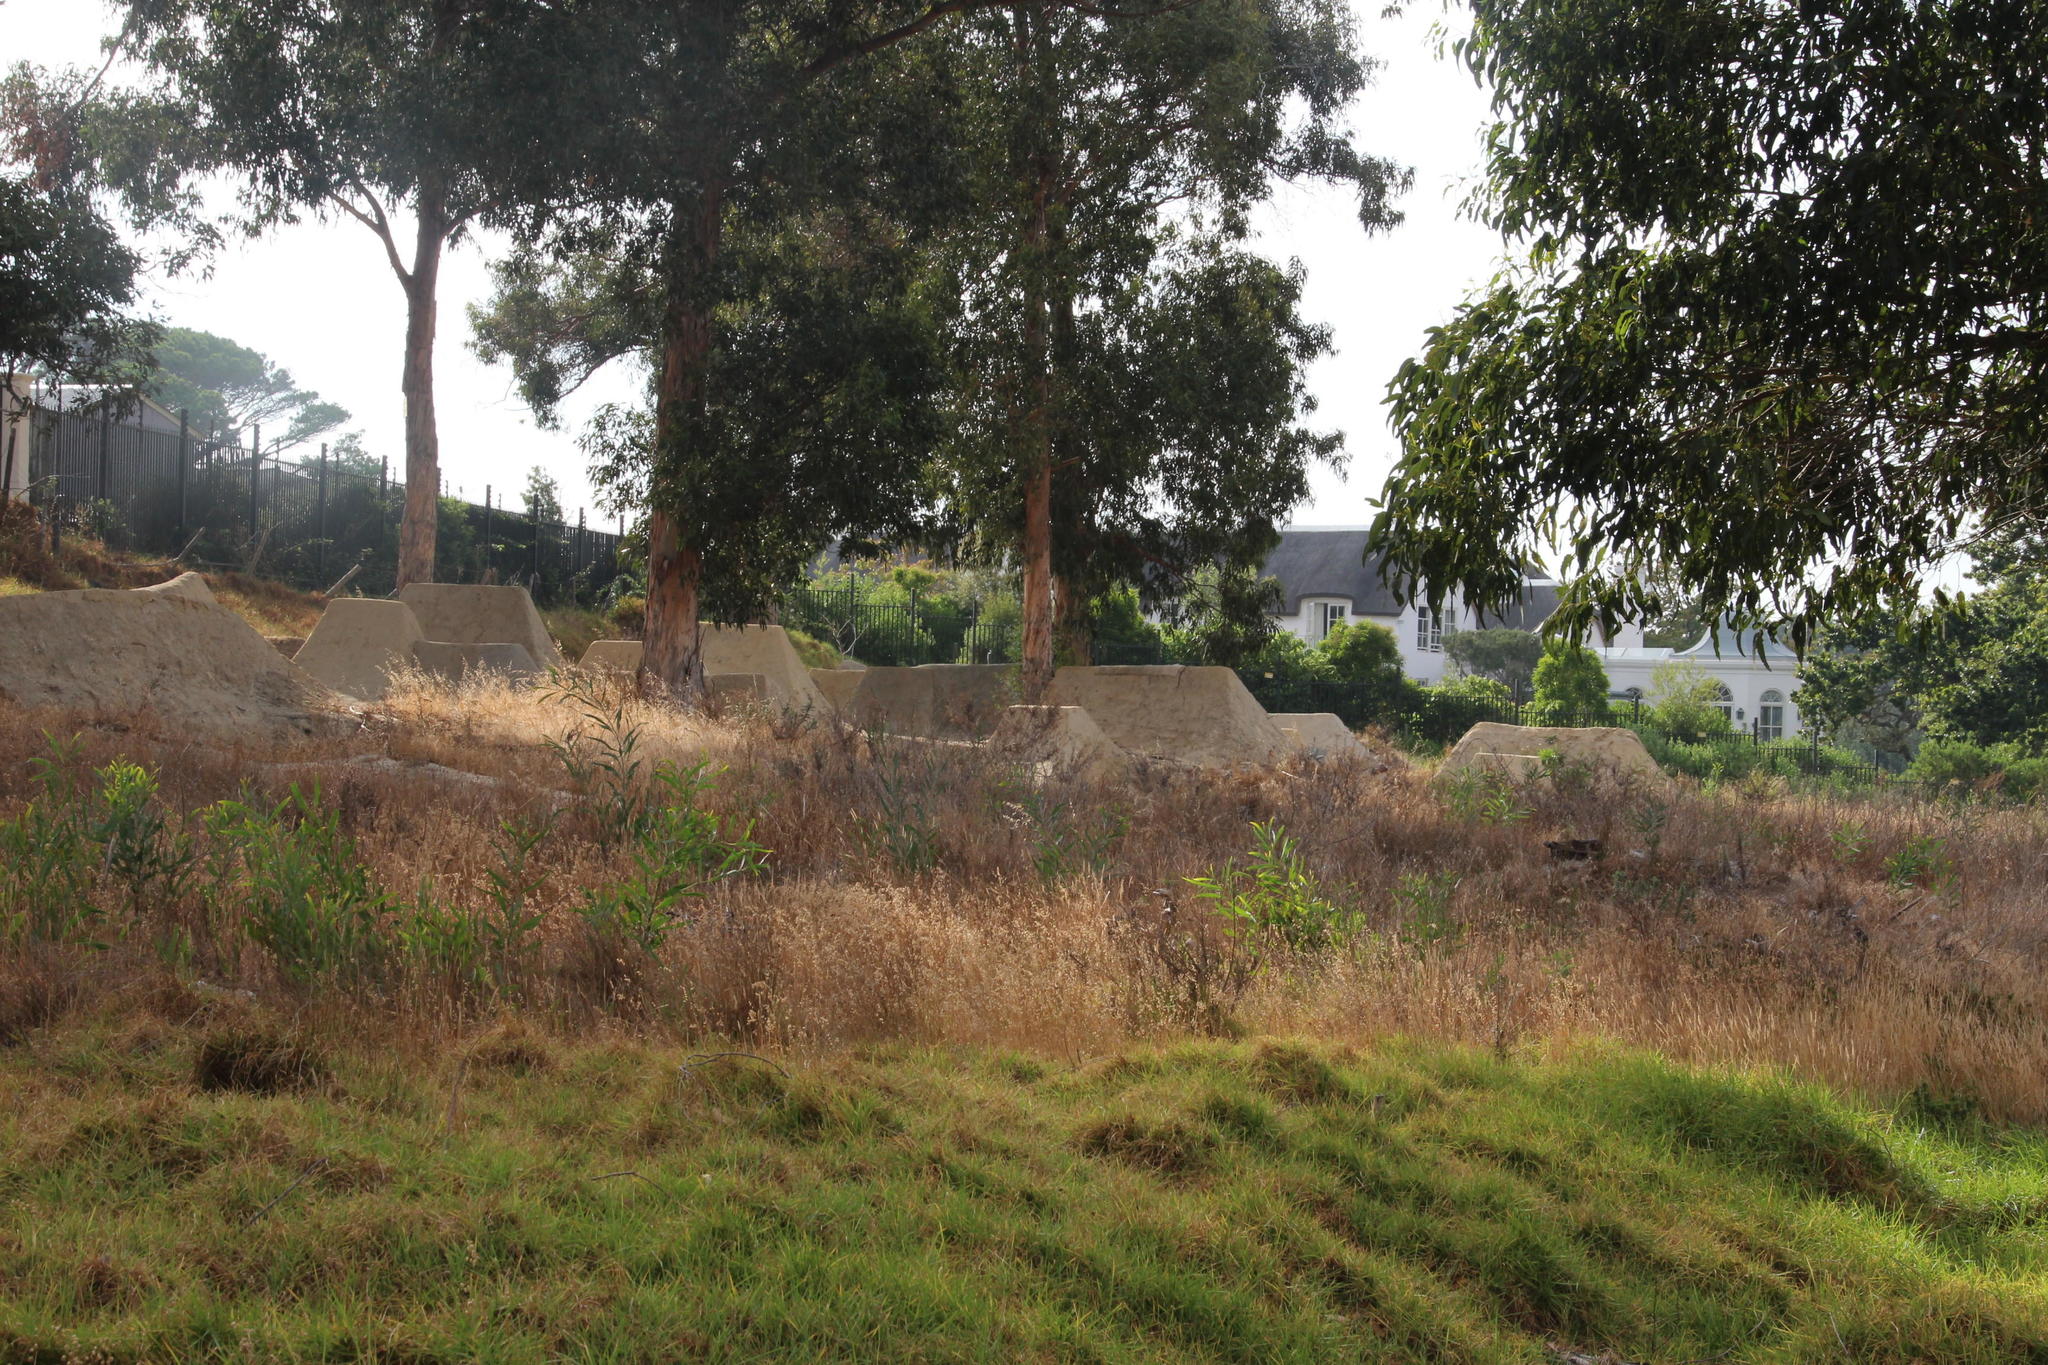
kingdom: Plantae
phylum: Tracheophyta
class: Magnoliopsida
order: Fabales
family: Fabaceae
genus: Acacia
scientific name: Acacia saligna
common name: Orange wattle
